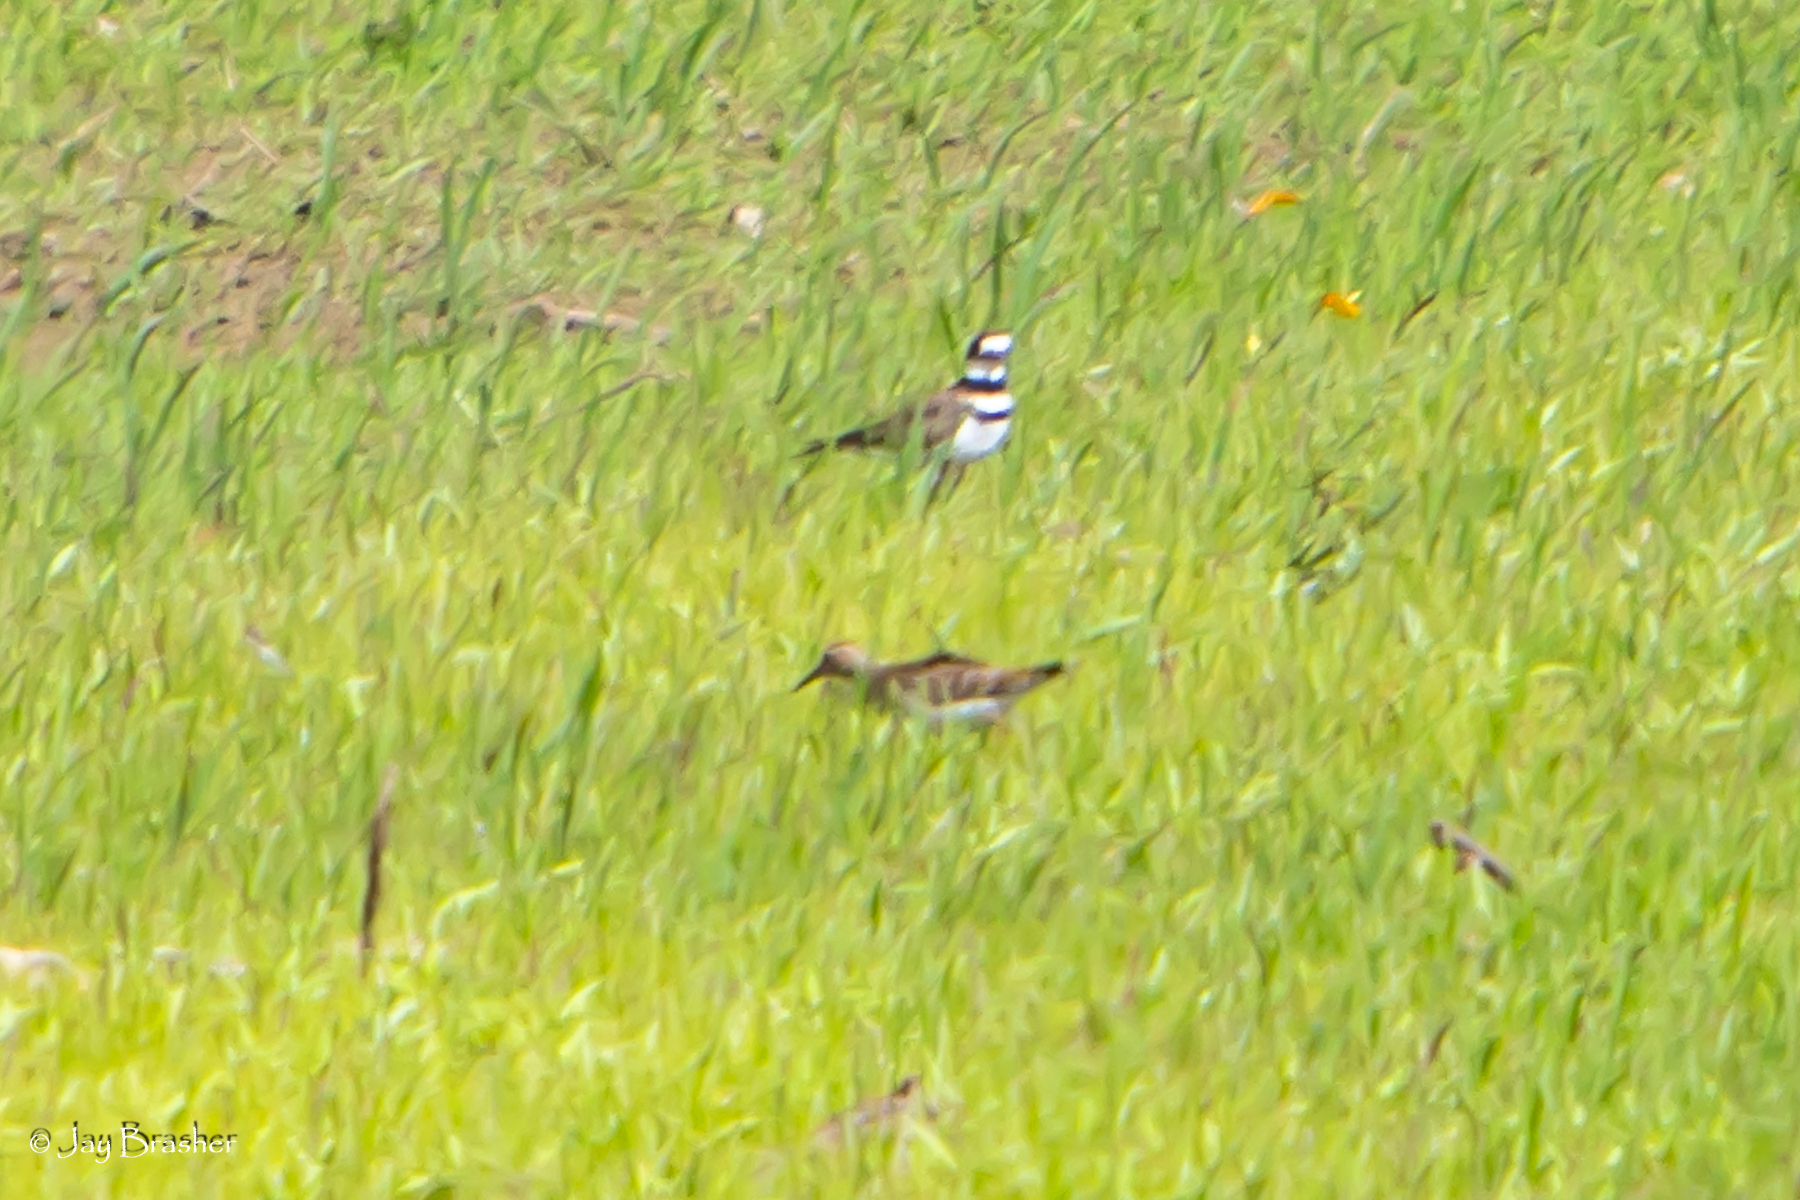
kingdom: Animalia
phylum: Chordata
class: Aves
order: Charadriiformes
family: Charadriidae
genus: Charadrius
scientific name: Charadrius vociferus
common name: Killdeer
